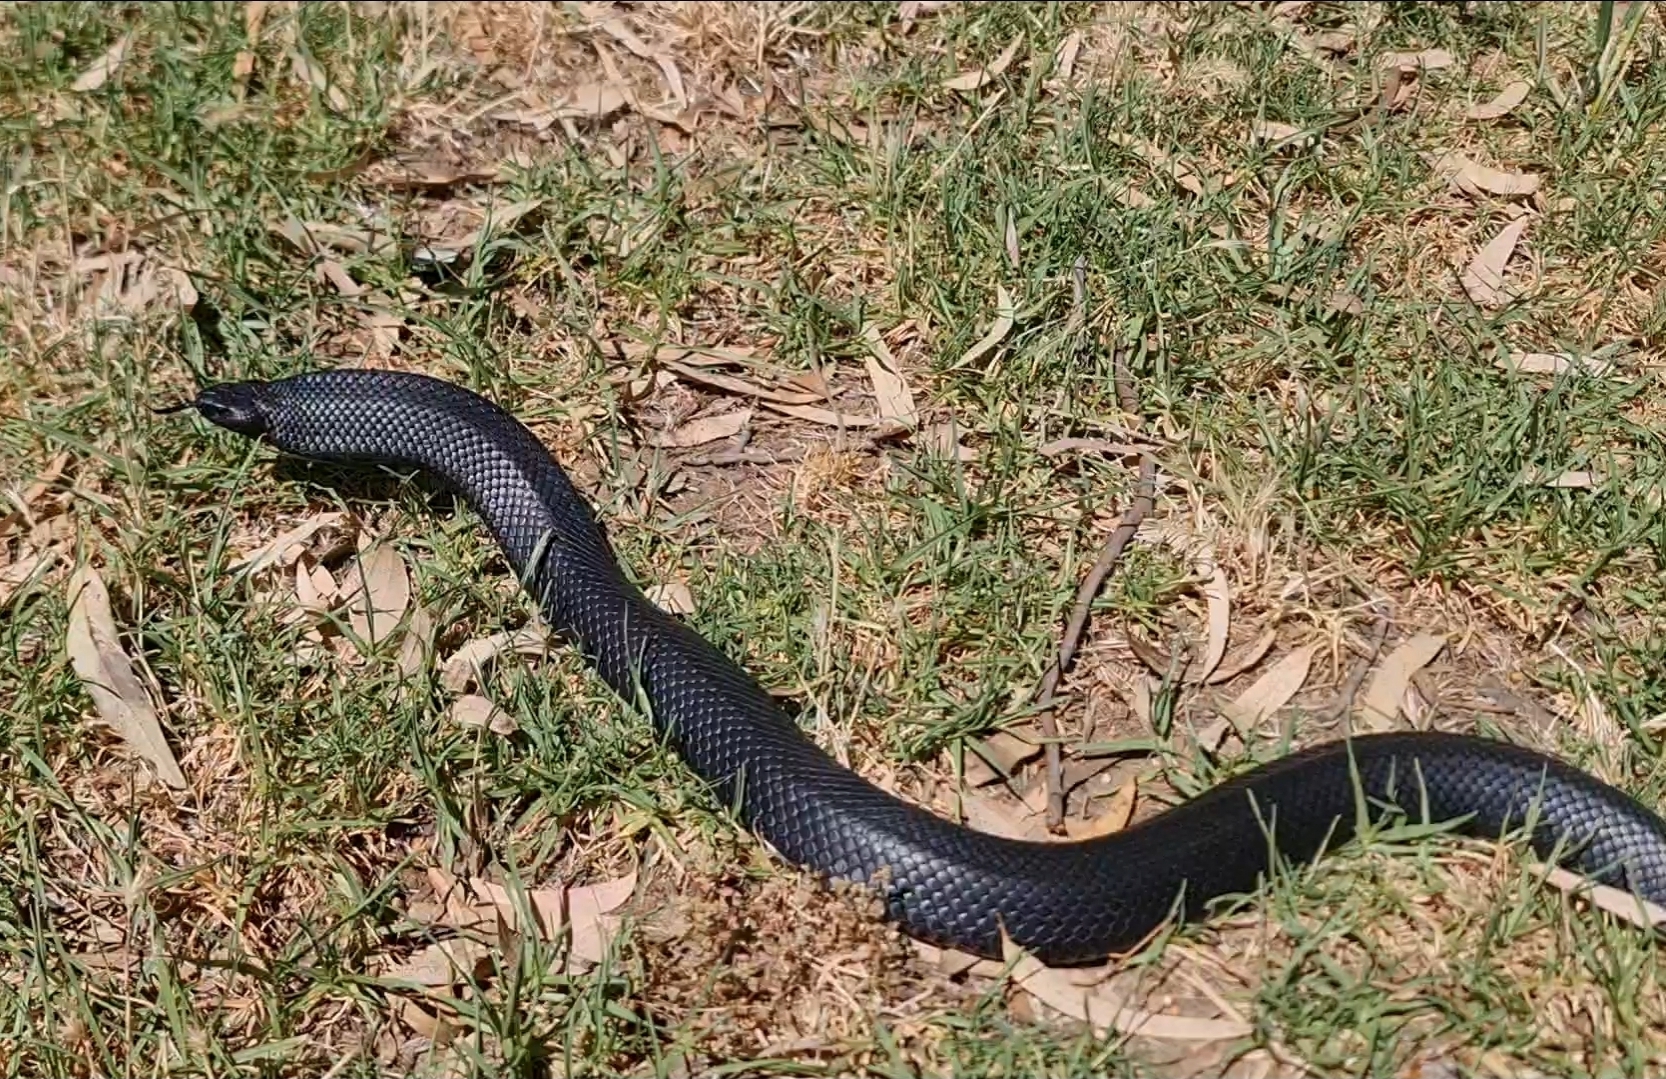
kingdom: Animalia
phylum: Chordata
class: Squamata
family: Elapidae
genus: Pseudechis
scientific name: Pseudechis porphyriacus
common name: Australian black snake
